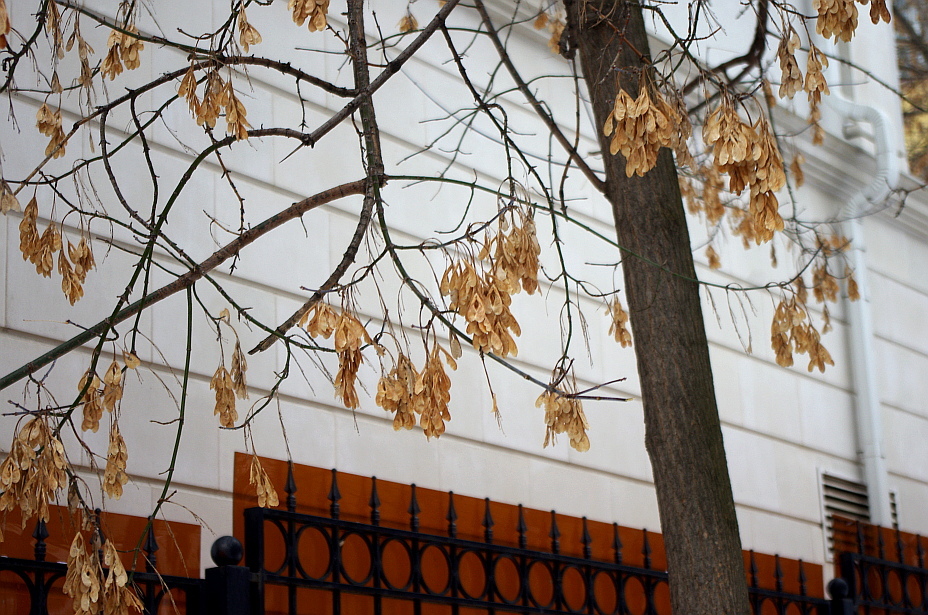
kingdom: Plantae
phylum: Tracheophyta
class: Magnoliopsida
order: Sapindales
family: Sapindaceae
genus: Acer
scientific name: Acer negundo
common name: Ashleaf maple
